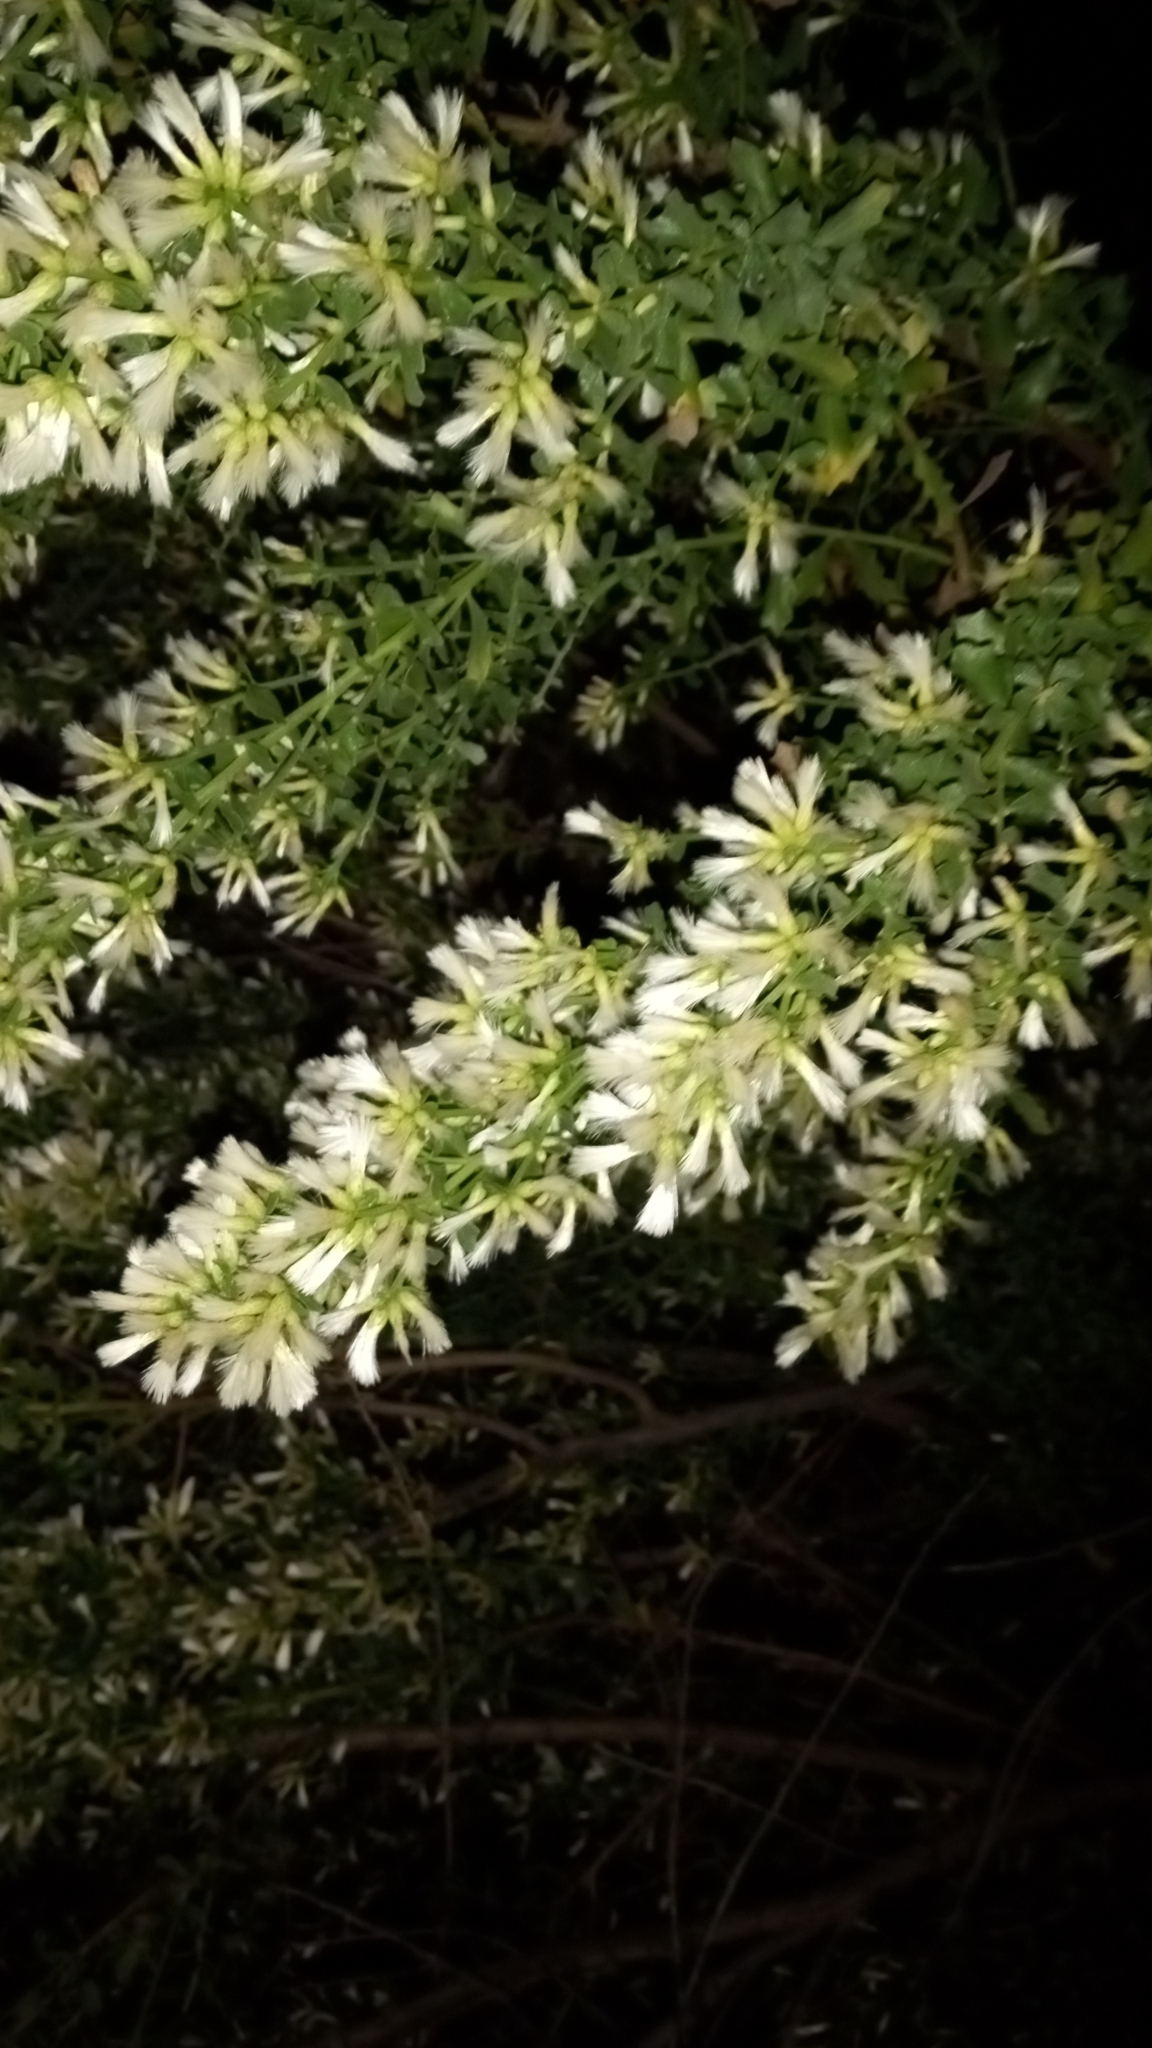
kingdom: Plantae
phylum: Tracheophyta
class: Magnoliopsida
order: Asterales
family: Asteraceae
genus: Baccharis
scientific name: Baccharis pilularis
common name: Coyotebrush
